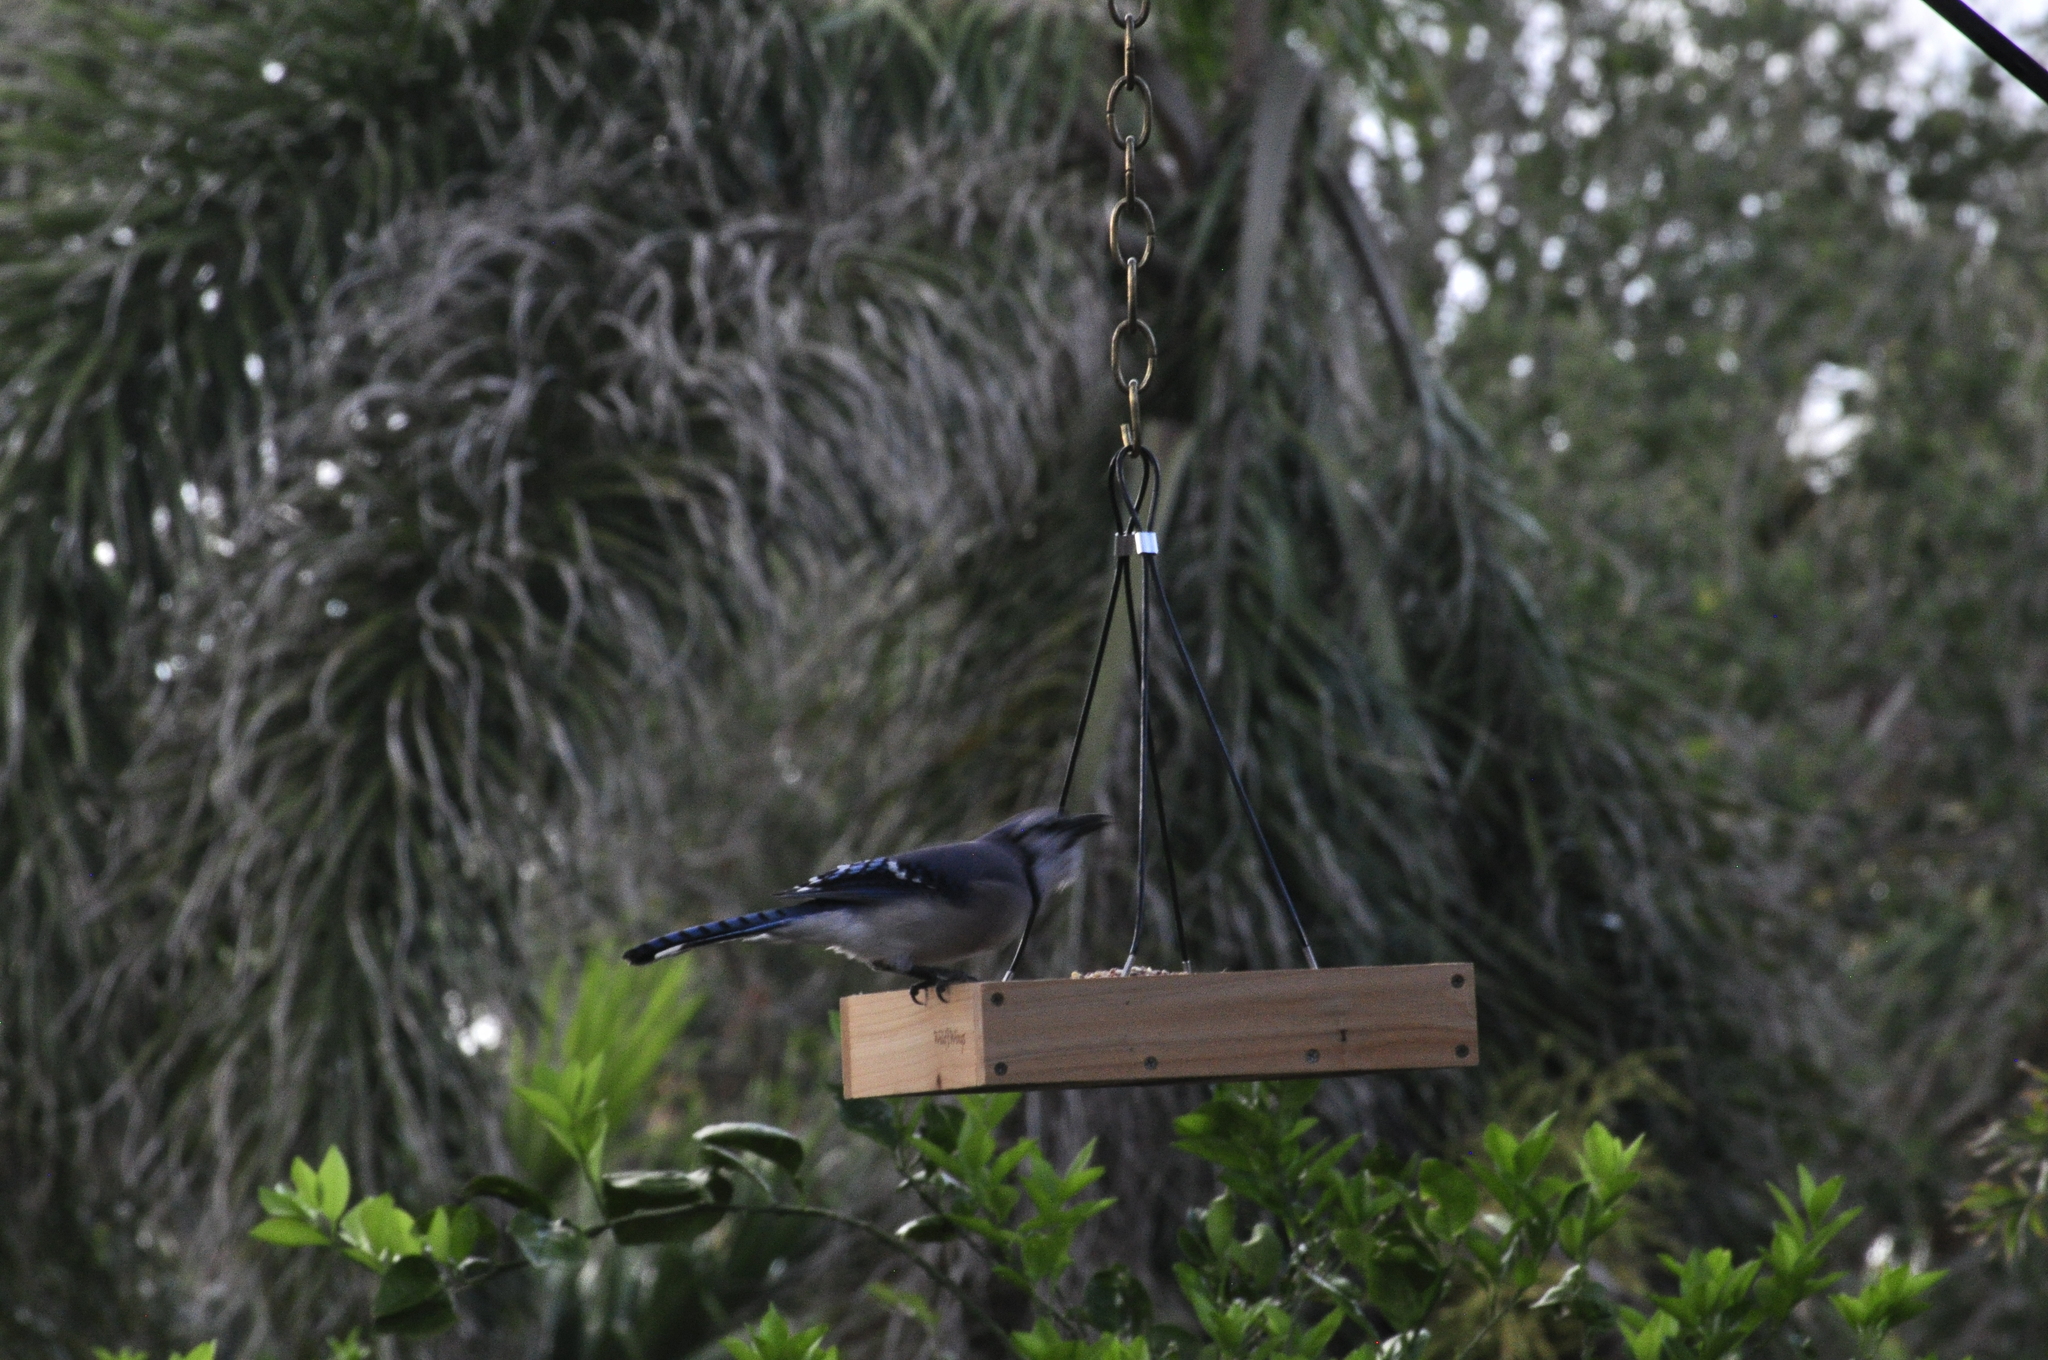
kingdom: Animalia
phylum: Chordata
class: Aves
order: Passeriformes
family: Corvidae
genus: Cyanocitta
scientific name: Cyanocitta cristata
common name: Blue jay
